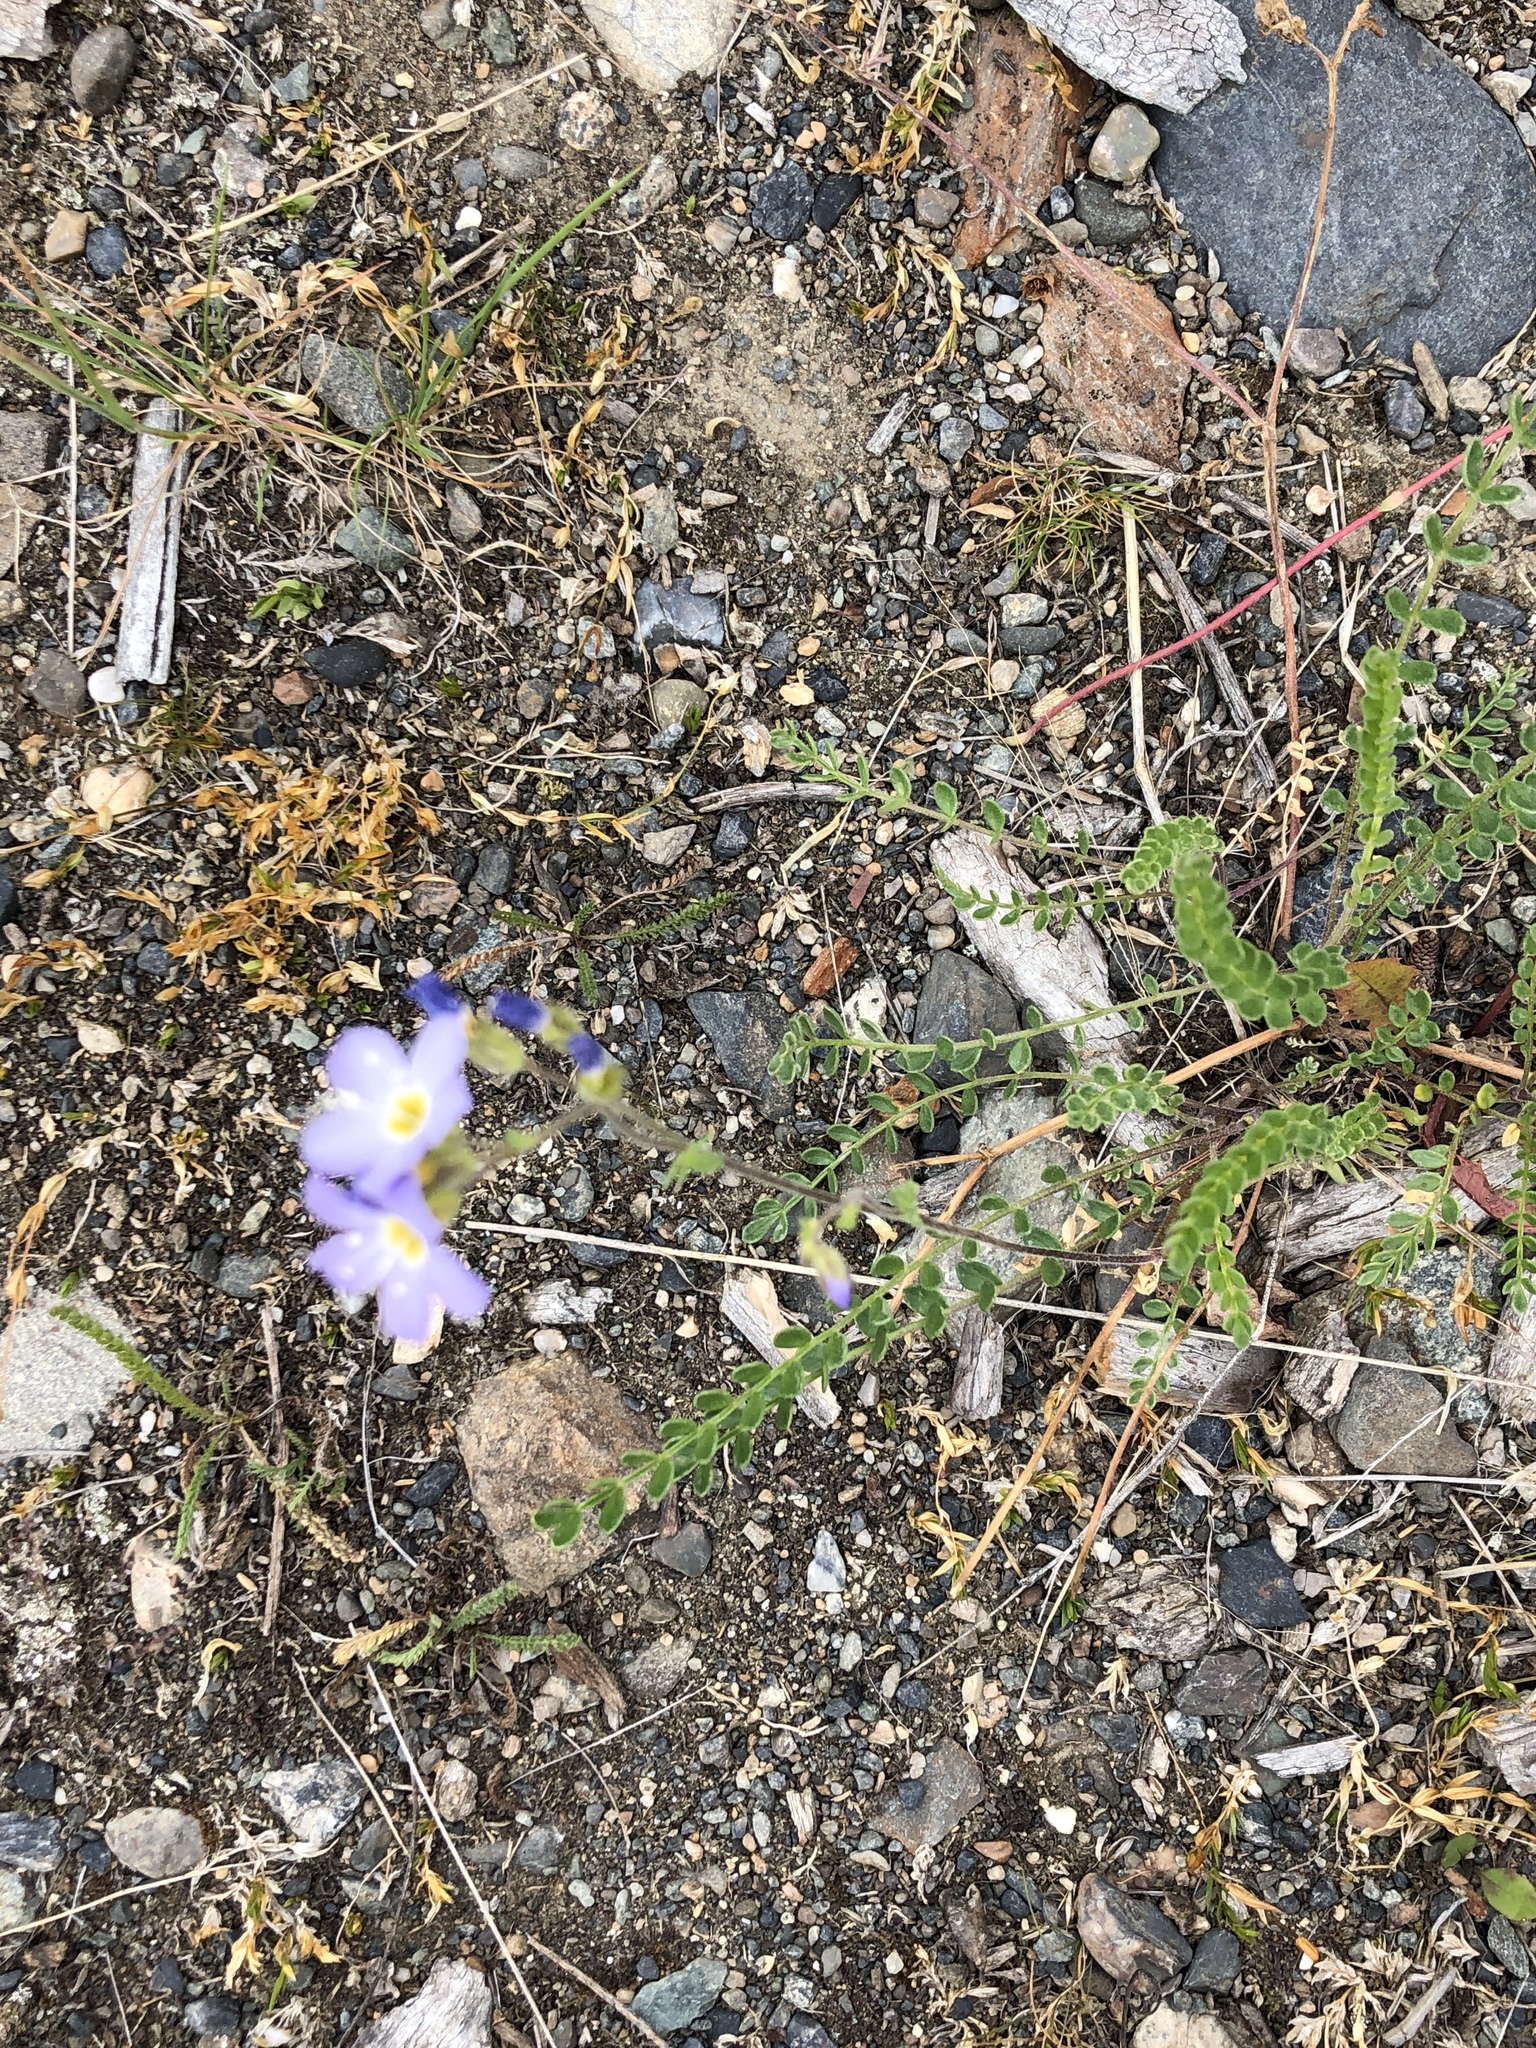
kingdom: Plantae
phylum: Tracheophyta
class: Magnoliopsida
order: Ericales
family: Polemoniaceae
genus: Polemonium
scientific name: Polemonium pulcherrimum
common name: Short jacob's-ladder
